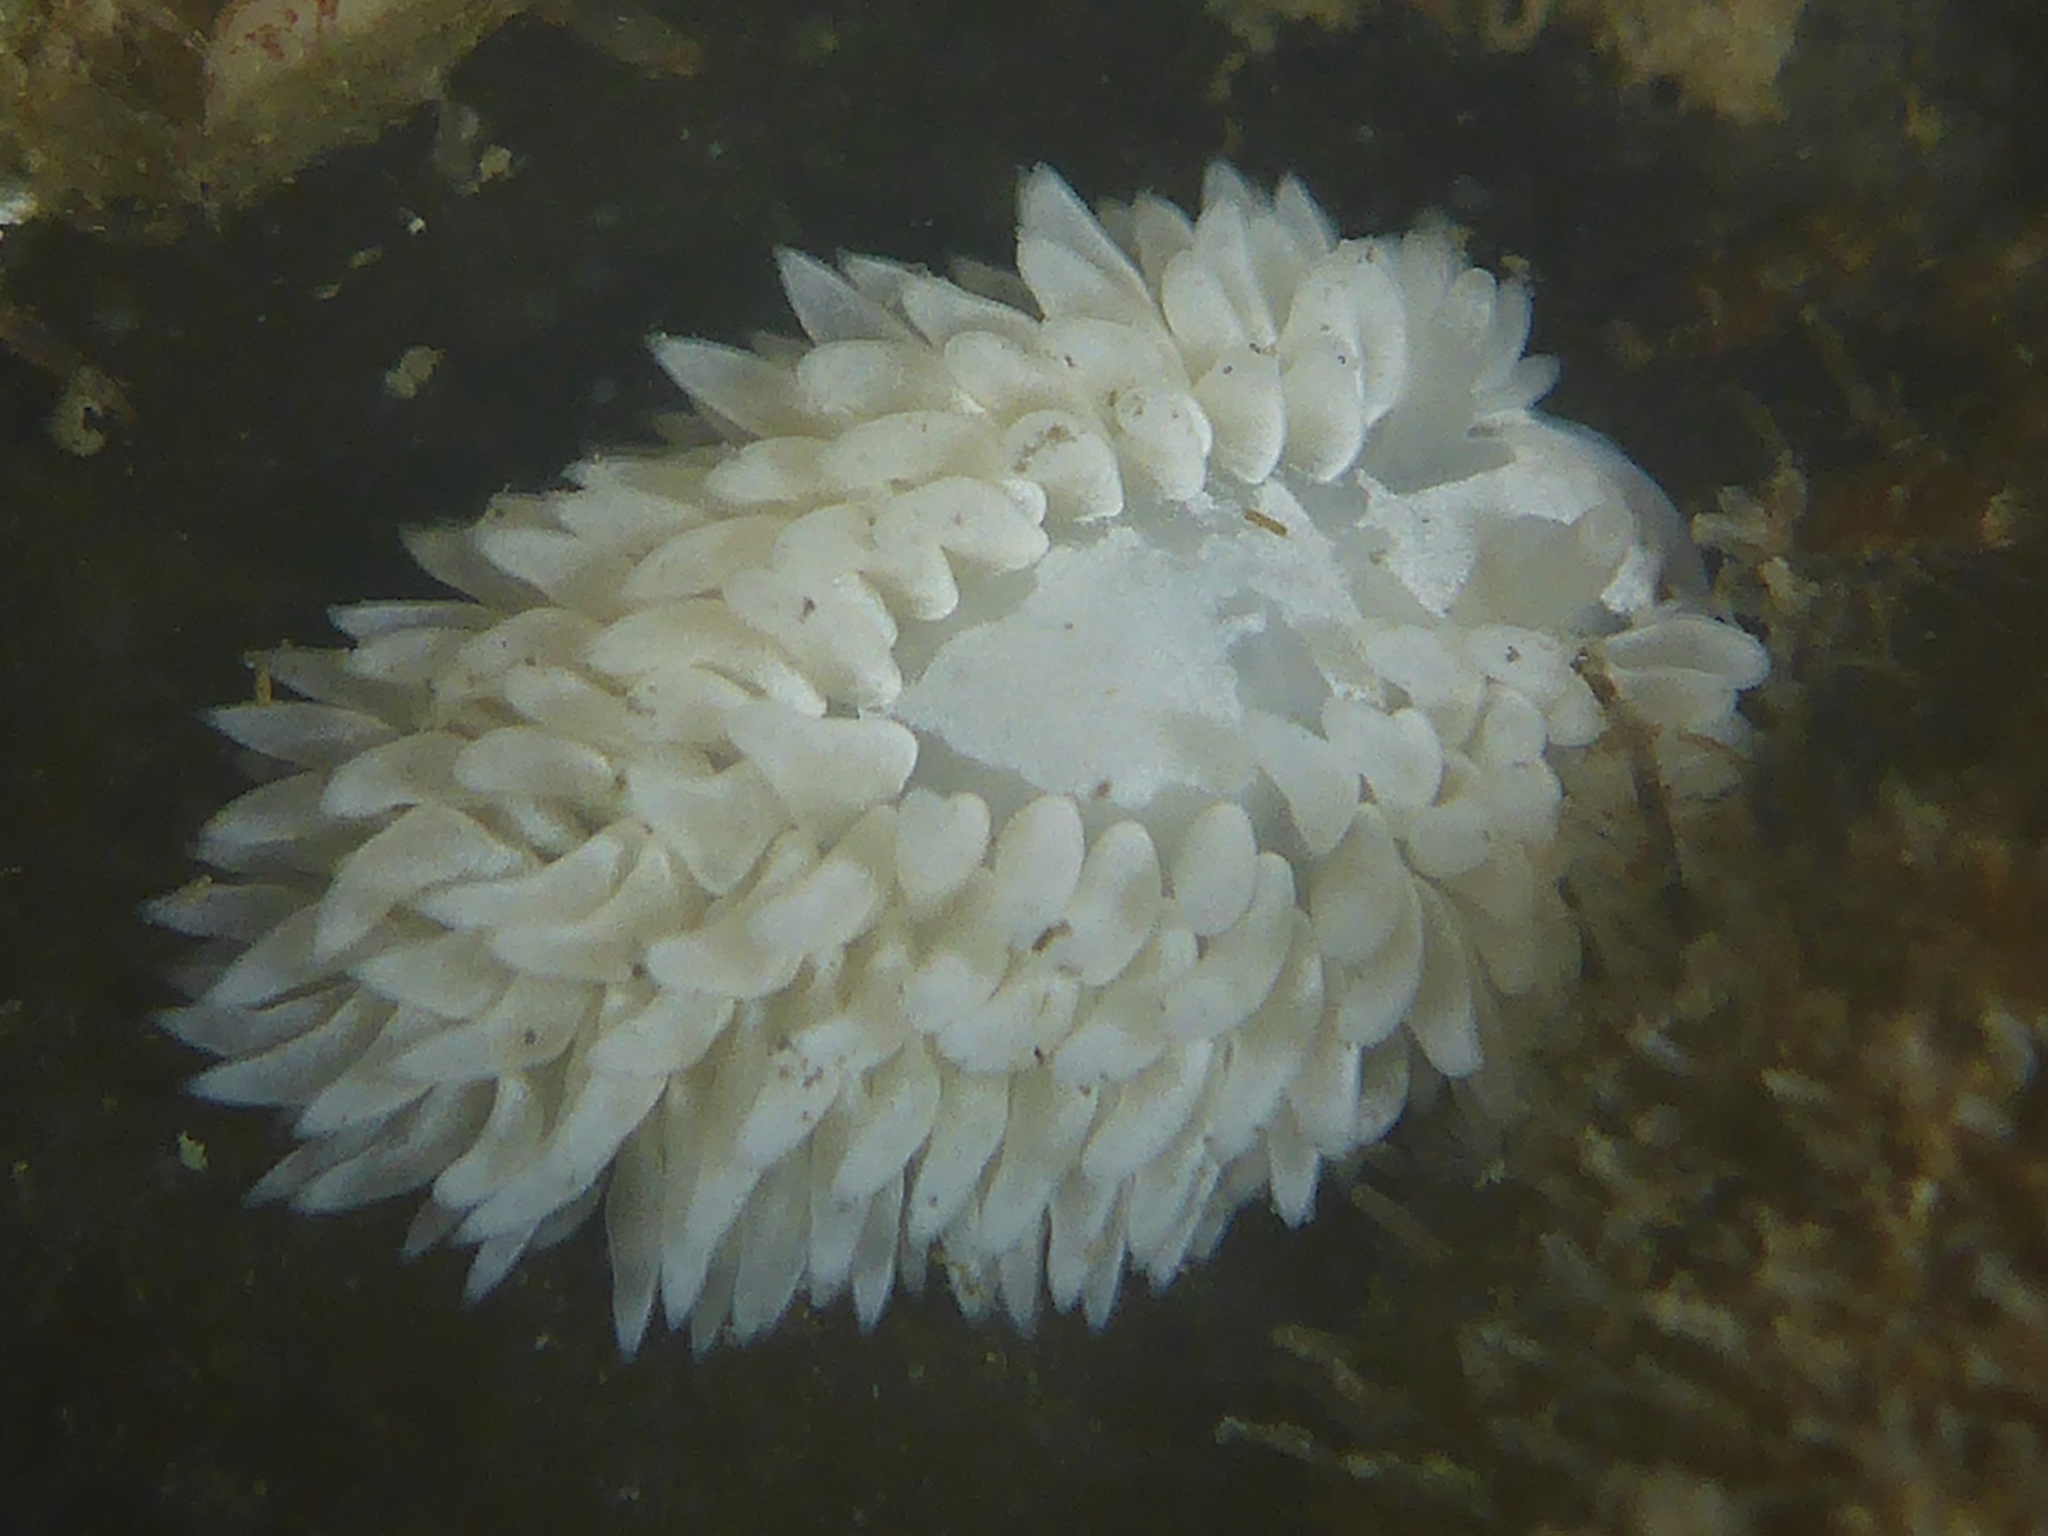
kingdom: Animalia
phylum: Mollusca
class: Gastropoda
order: Nudibranchia
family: Aeolidiidae
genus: Aeolidia
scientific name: Aeolidia loui
